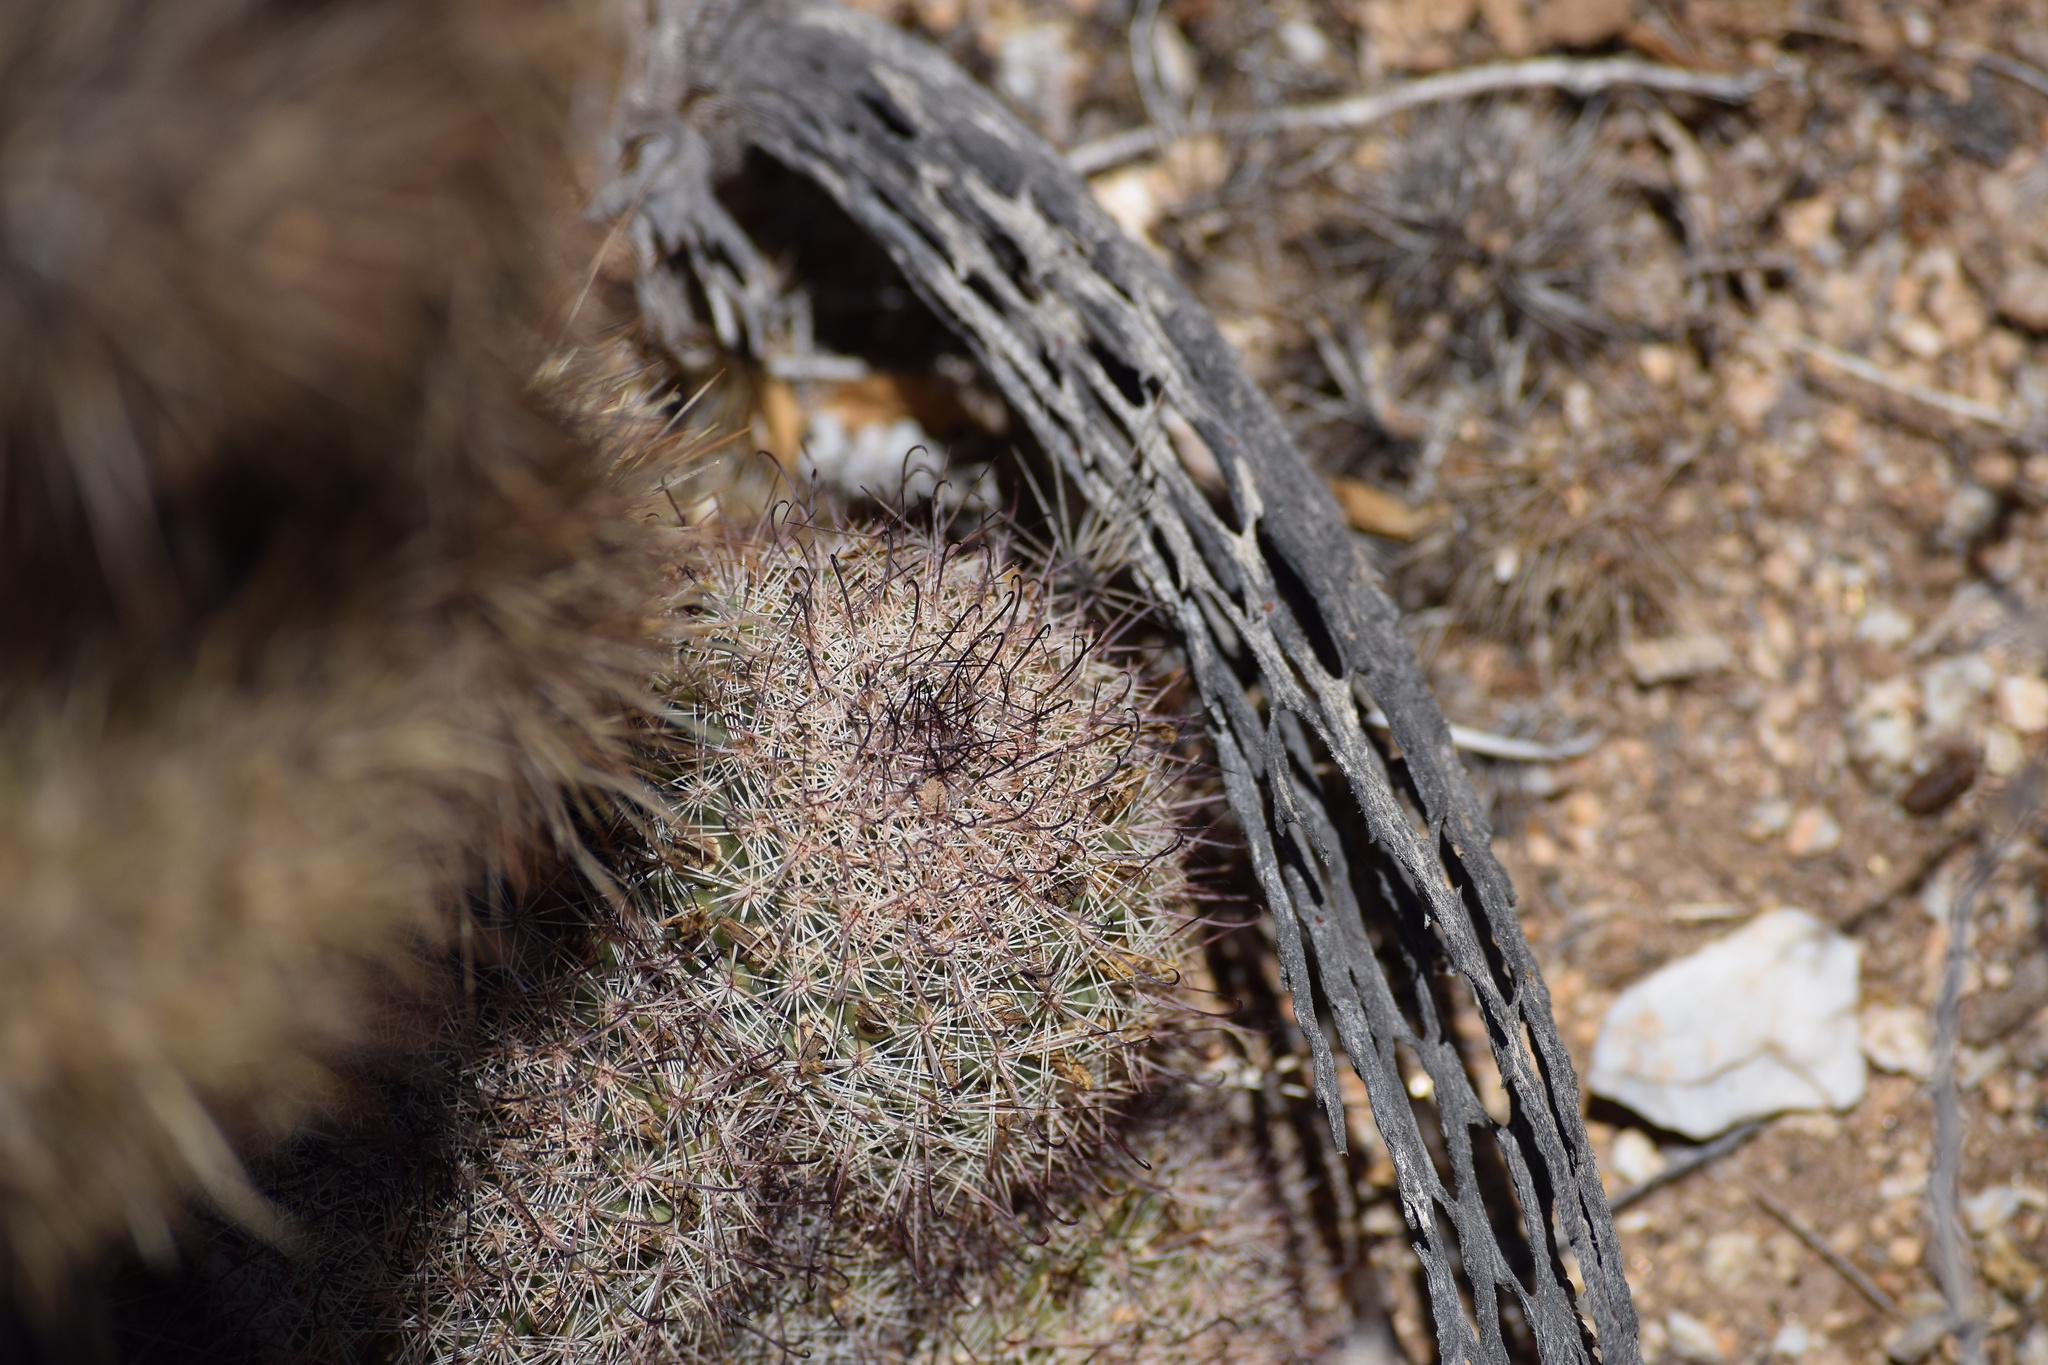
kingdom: Plantae
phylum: Tracheophyta
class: Magnoliopsida
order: Caryophyllales
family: Cactaceae
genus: Cochemiea
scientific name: Cochemiea dioica
